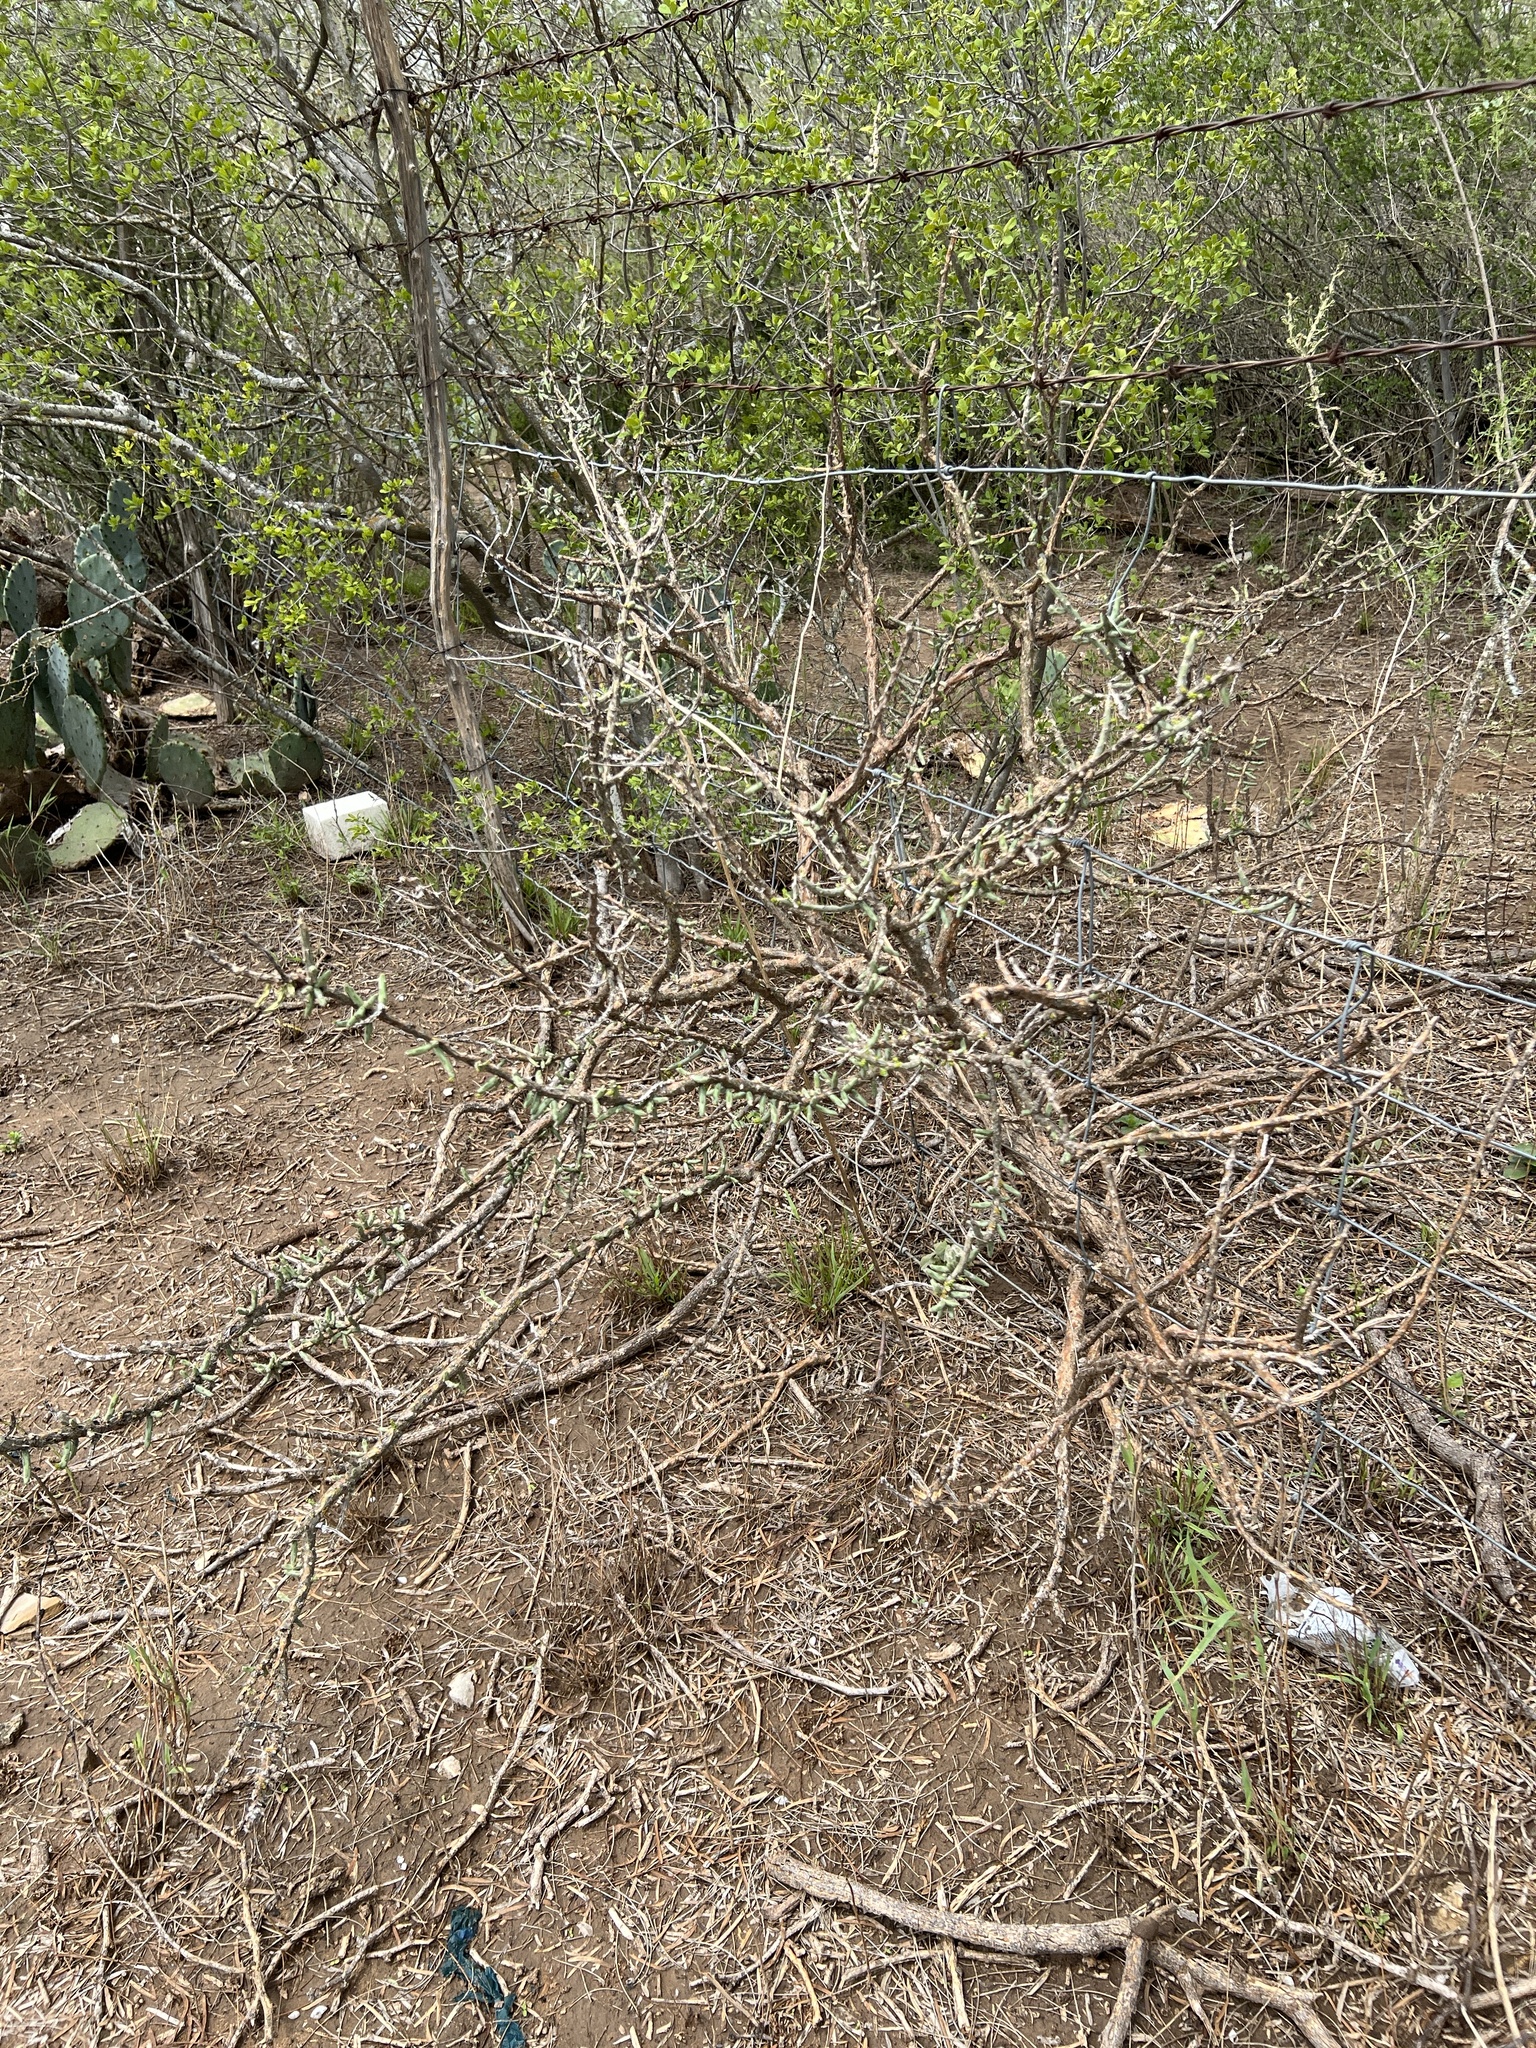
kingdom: Plantae
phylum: Tracheophyta
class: Magnoliopsida
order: Caryophyllales
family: Cactaceae
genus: Cylindropuntia
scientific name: Cylindropuntia leptocaulis
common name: Christmas cactus
